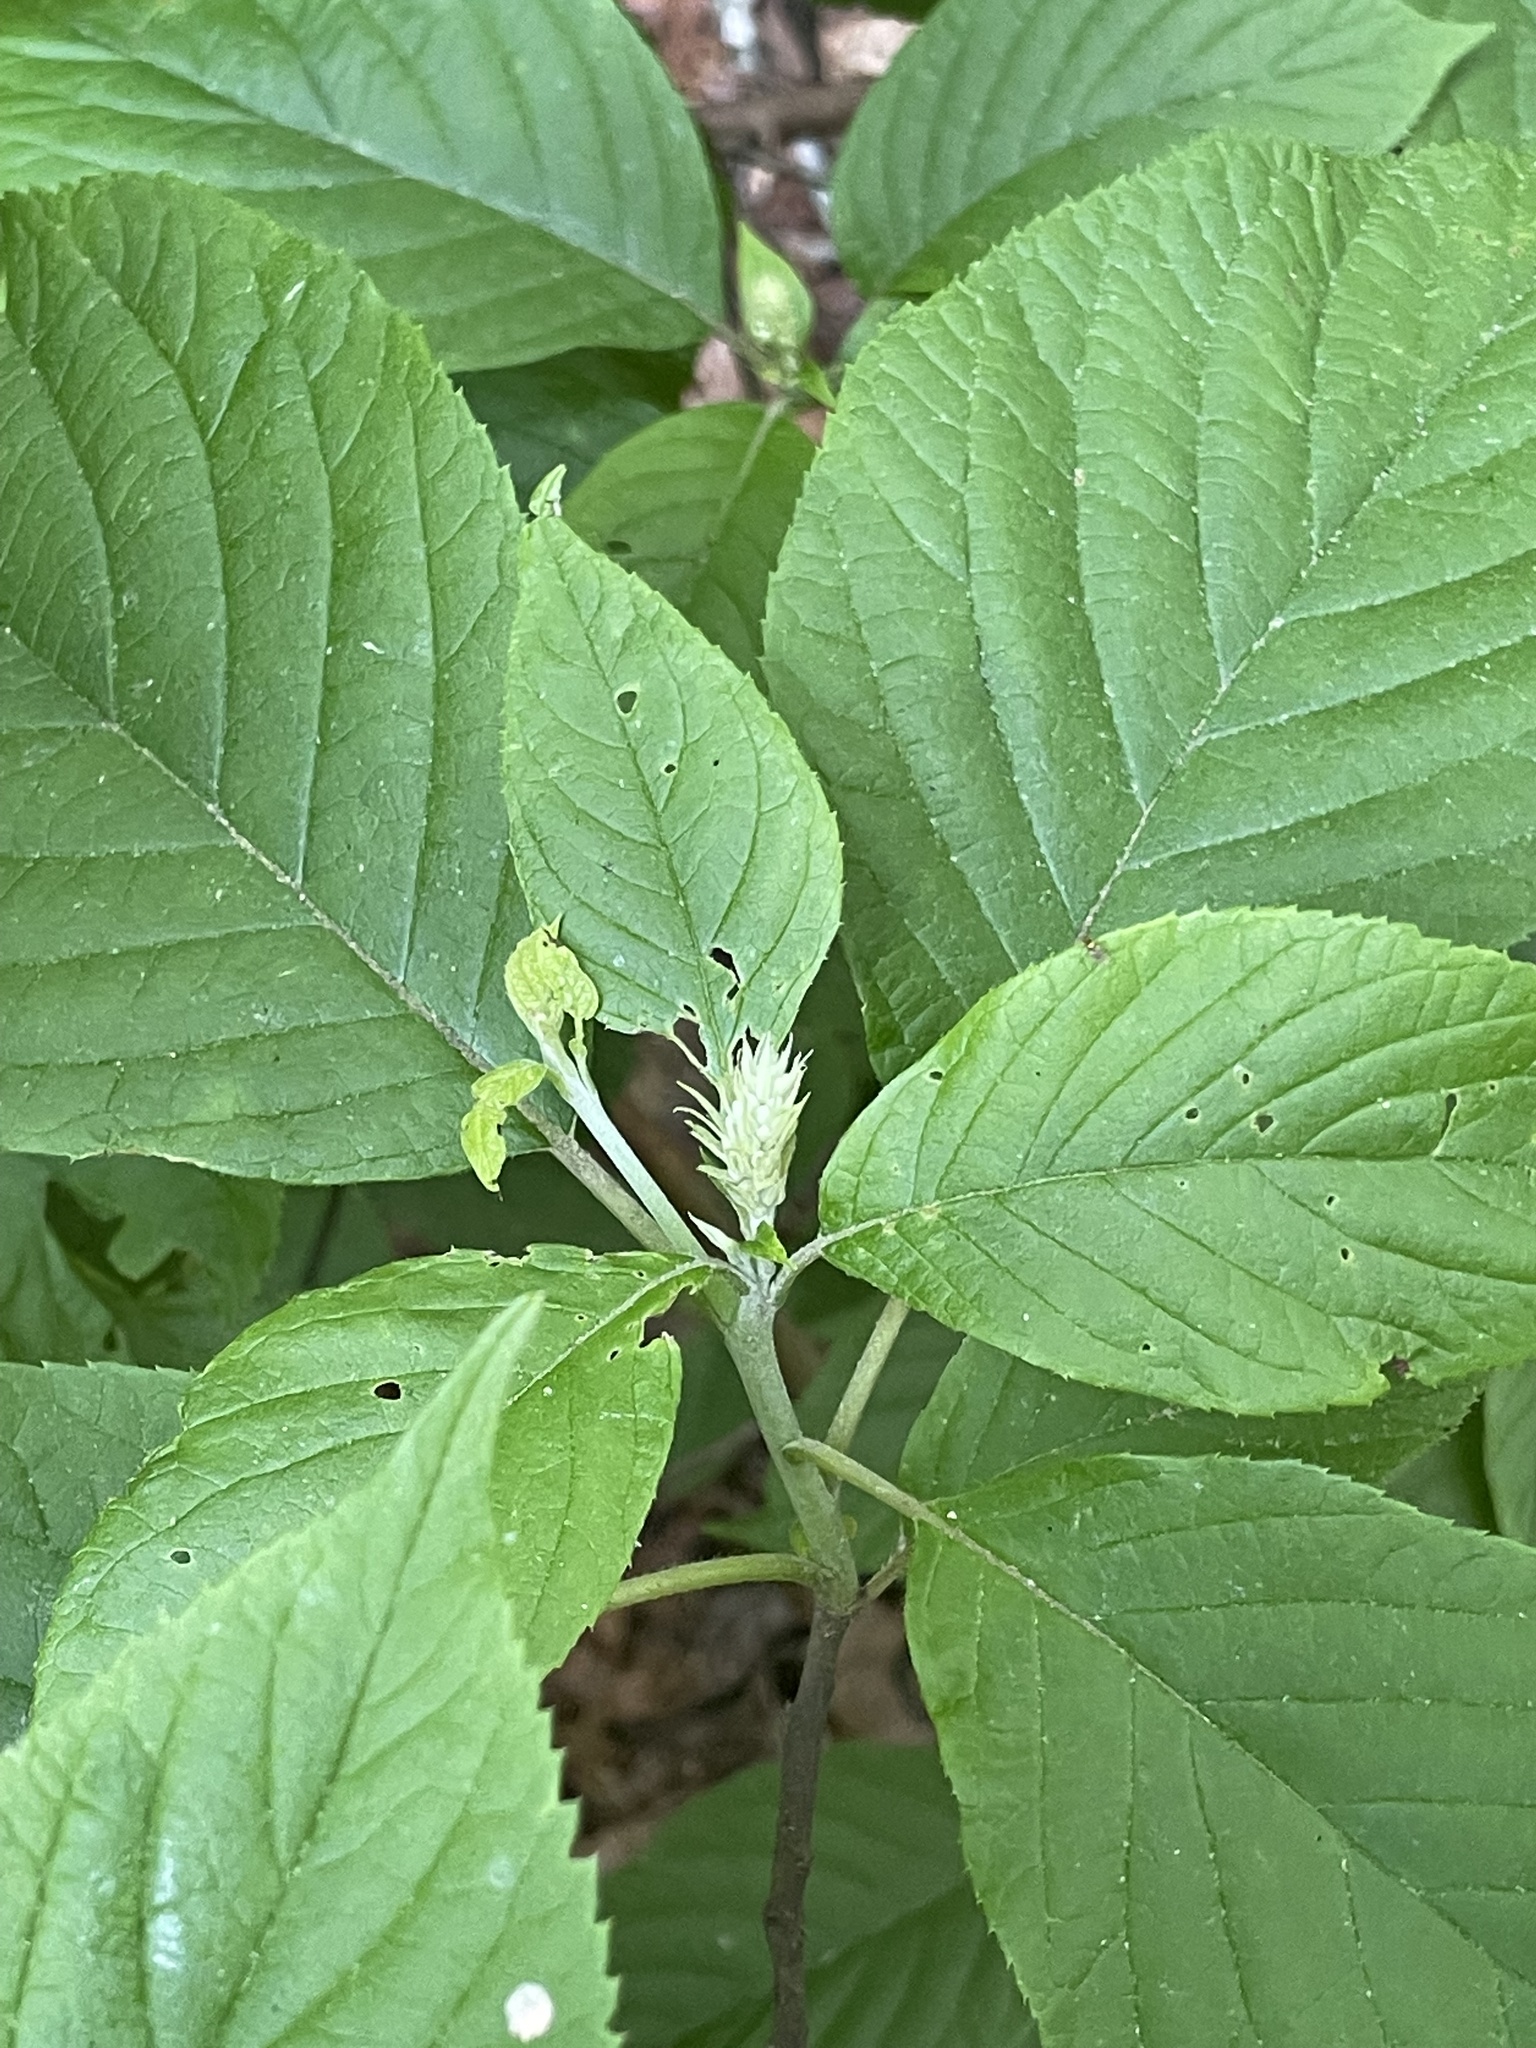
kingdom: Plantae
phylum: Tracheophyta
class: Magnoliopsida
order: Ericales
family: Clethraceae
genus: Clethra
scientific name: Clethra acuminata
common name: Mountain sweet pepperbush
